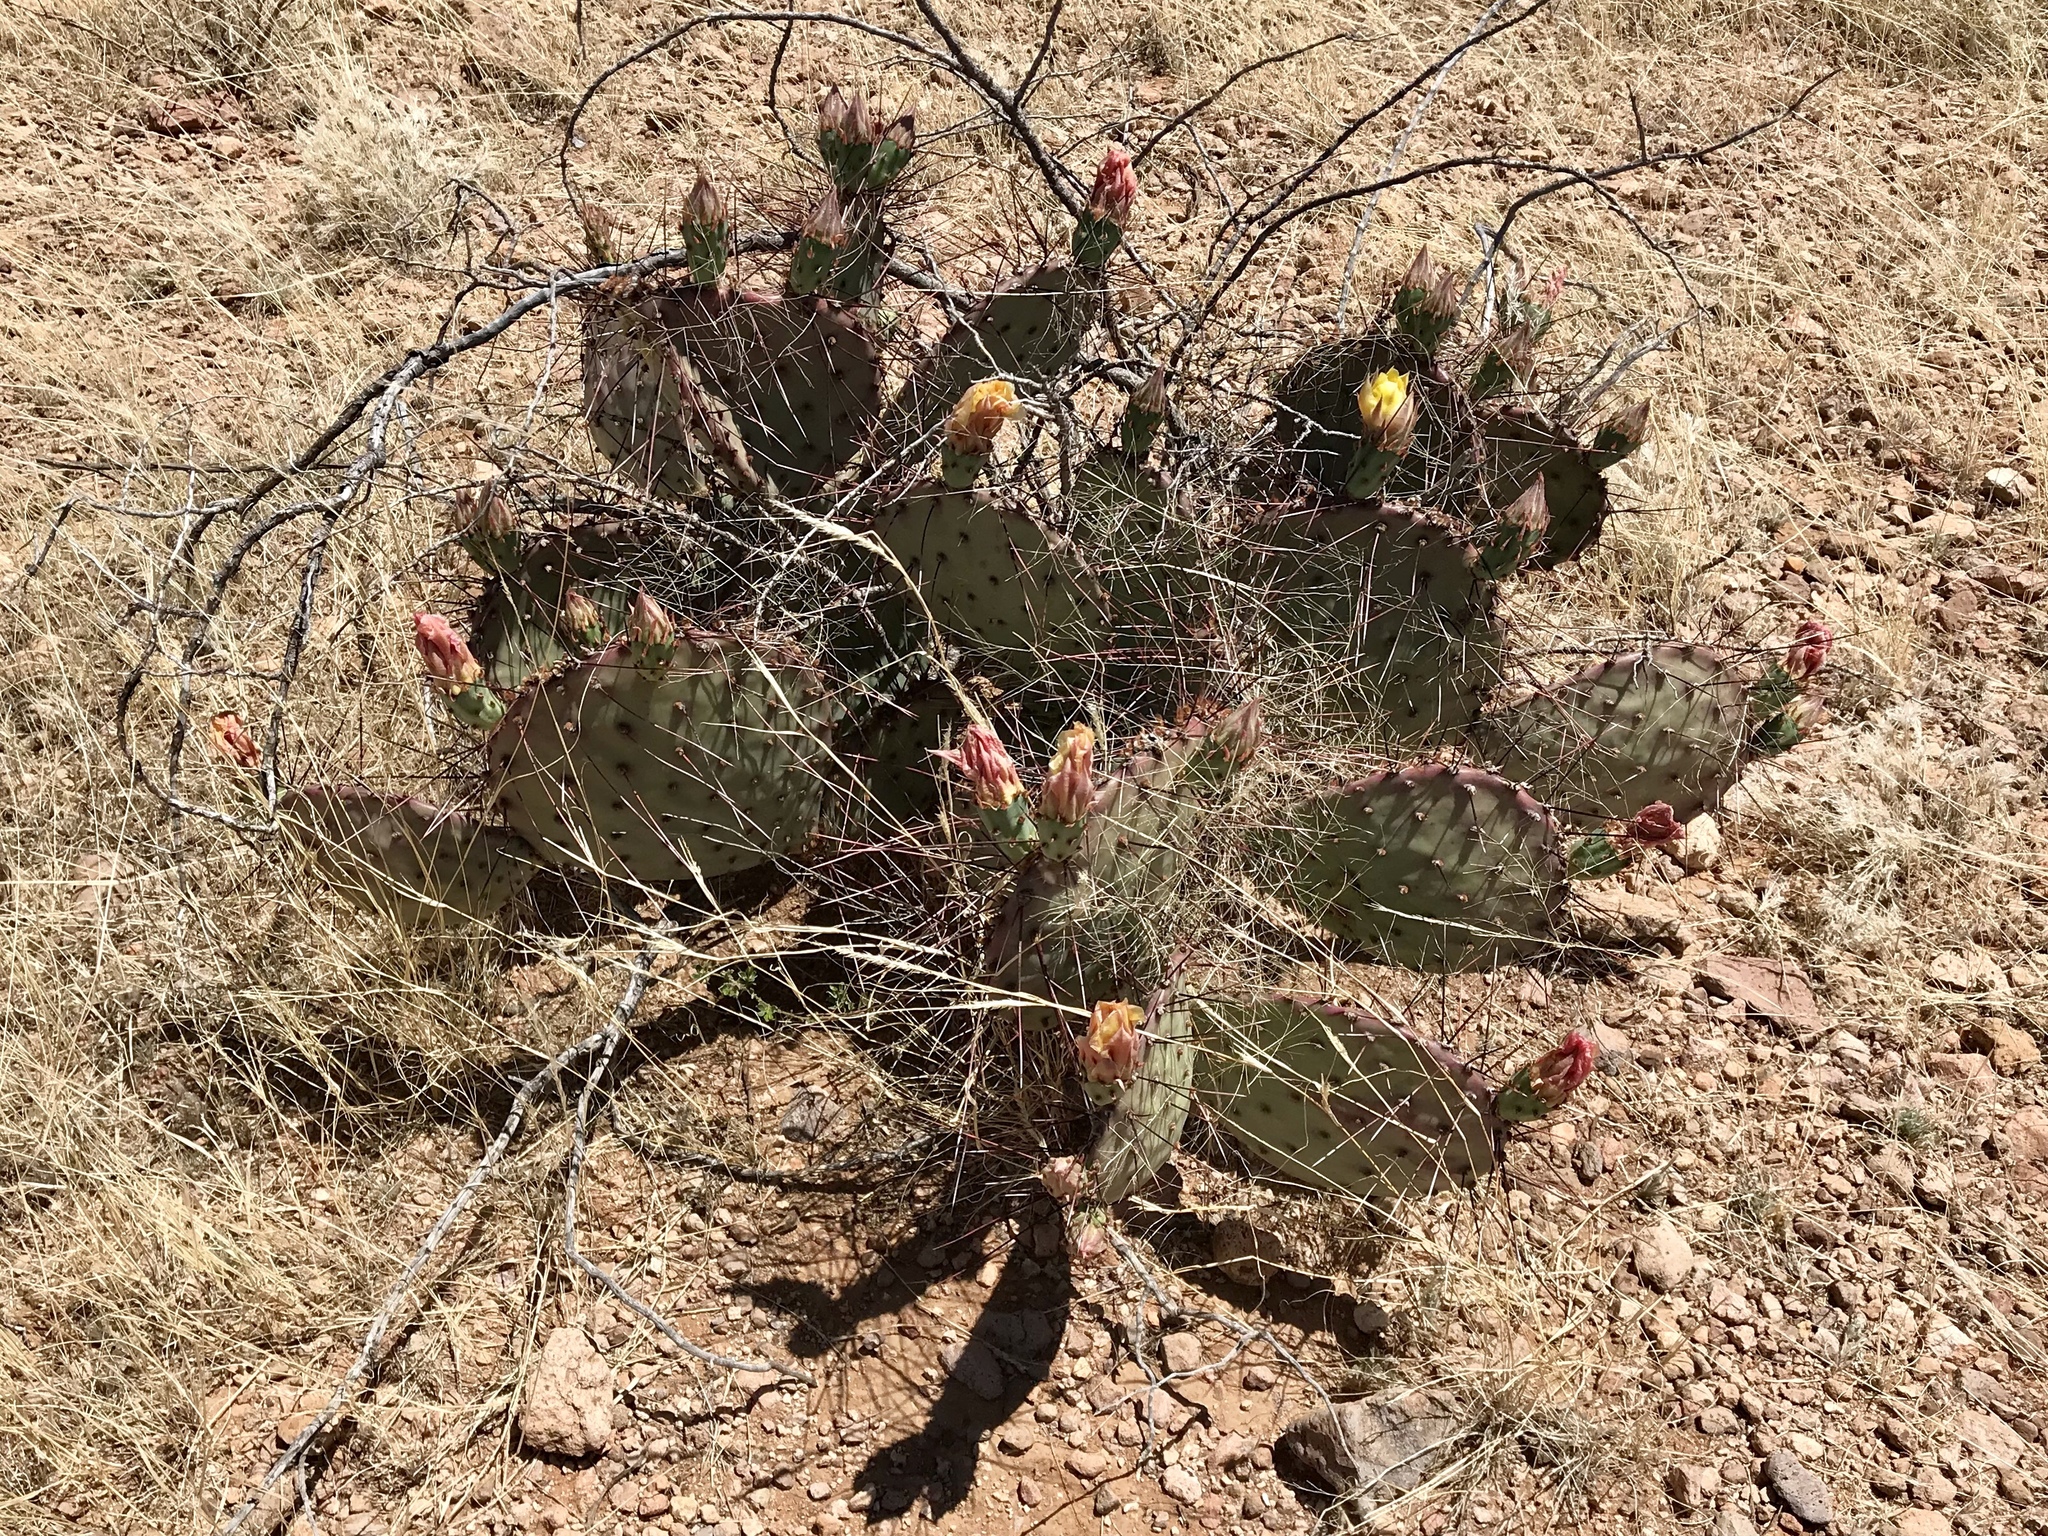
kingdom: Plantae
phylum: Tracheophyta
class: Magnoliopsida
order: Caryophyllales
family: Cactaceae
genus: Opuntia
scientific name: Opuntia macrocentra
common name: Purple prickly-pear
